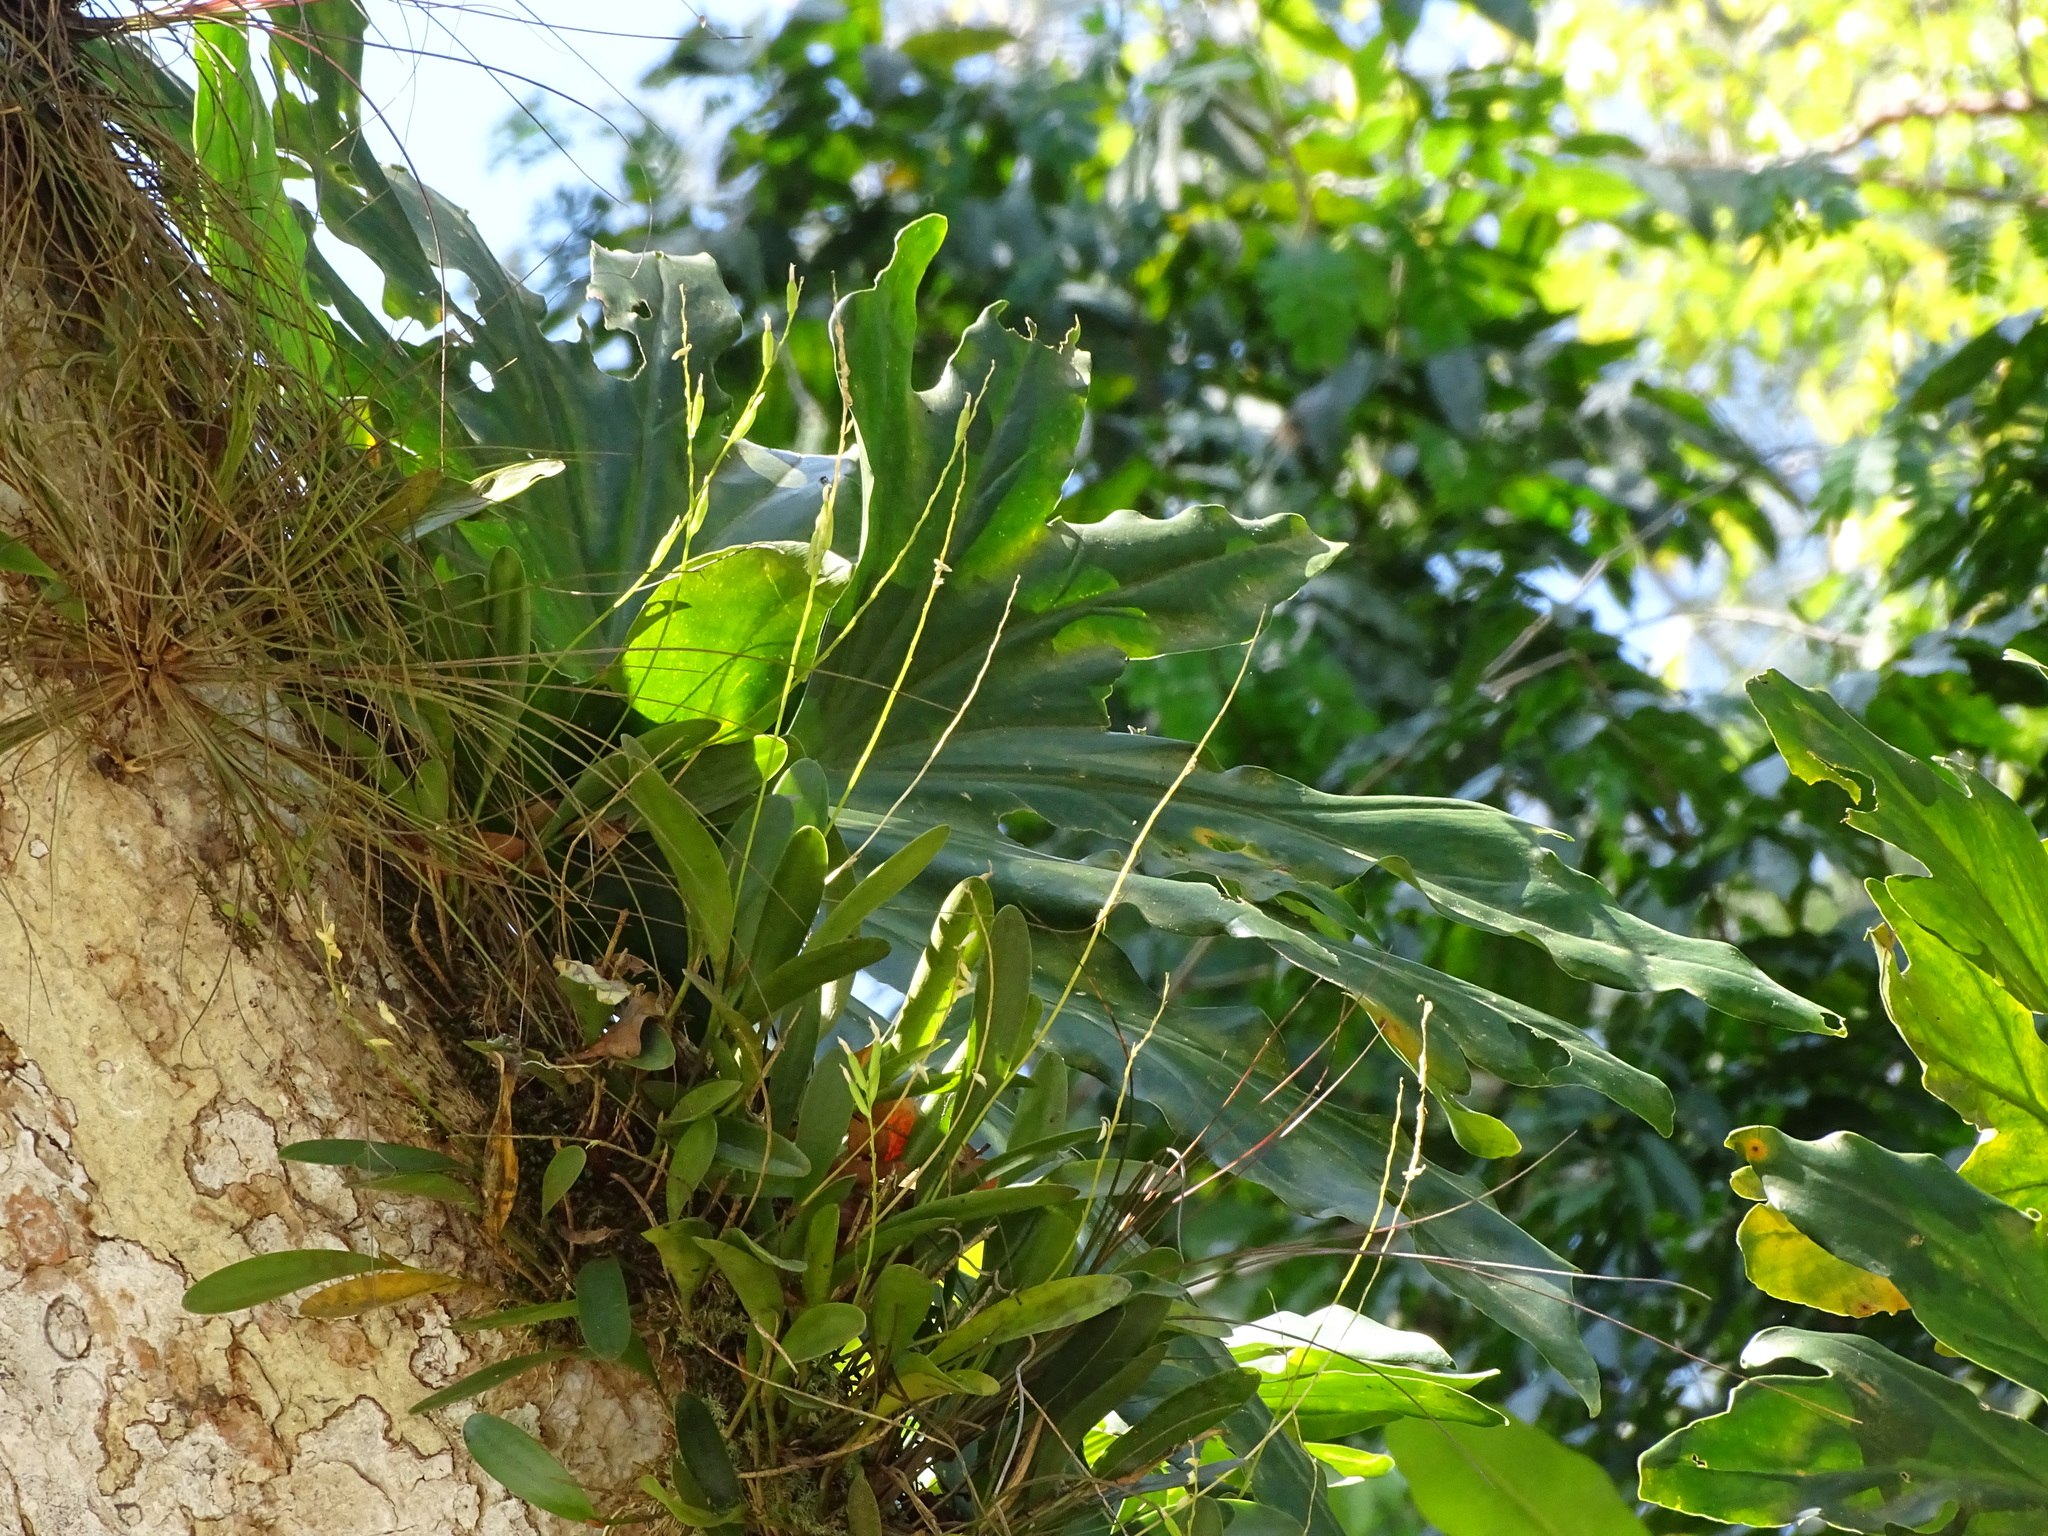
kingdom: Plantae
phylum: Tracheophyta
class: Liliopsida
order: Asparagales
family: Orchidaceae
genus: Pleurothallis
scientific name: Pleurothallis quadrifida
